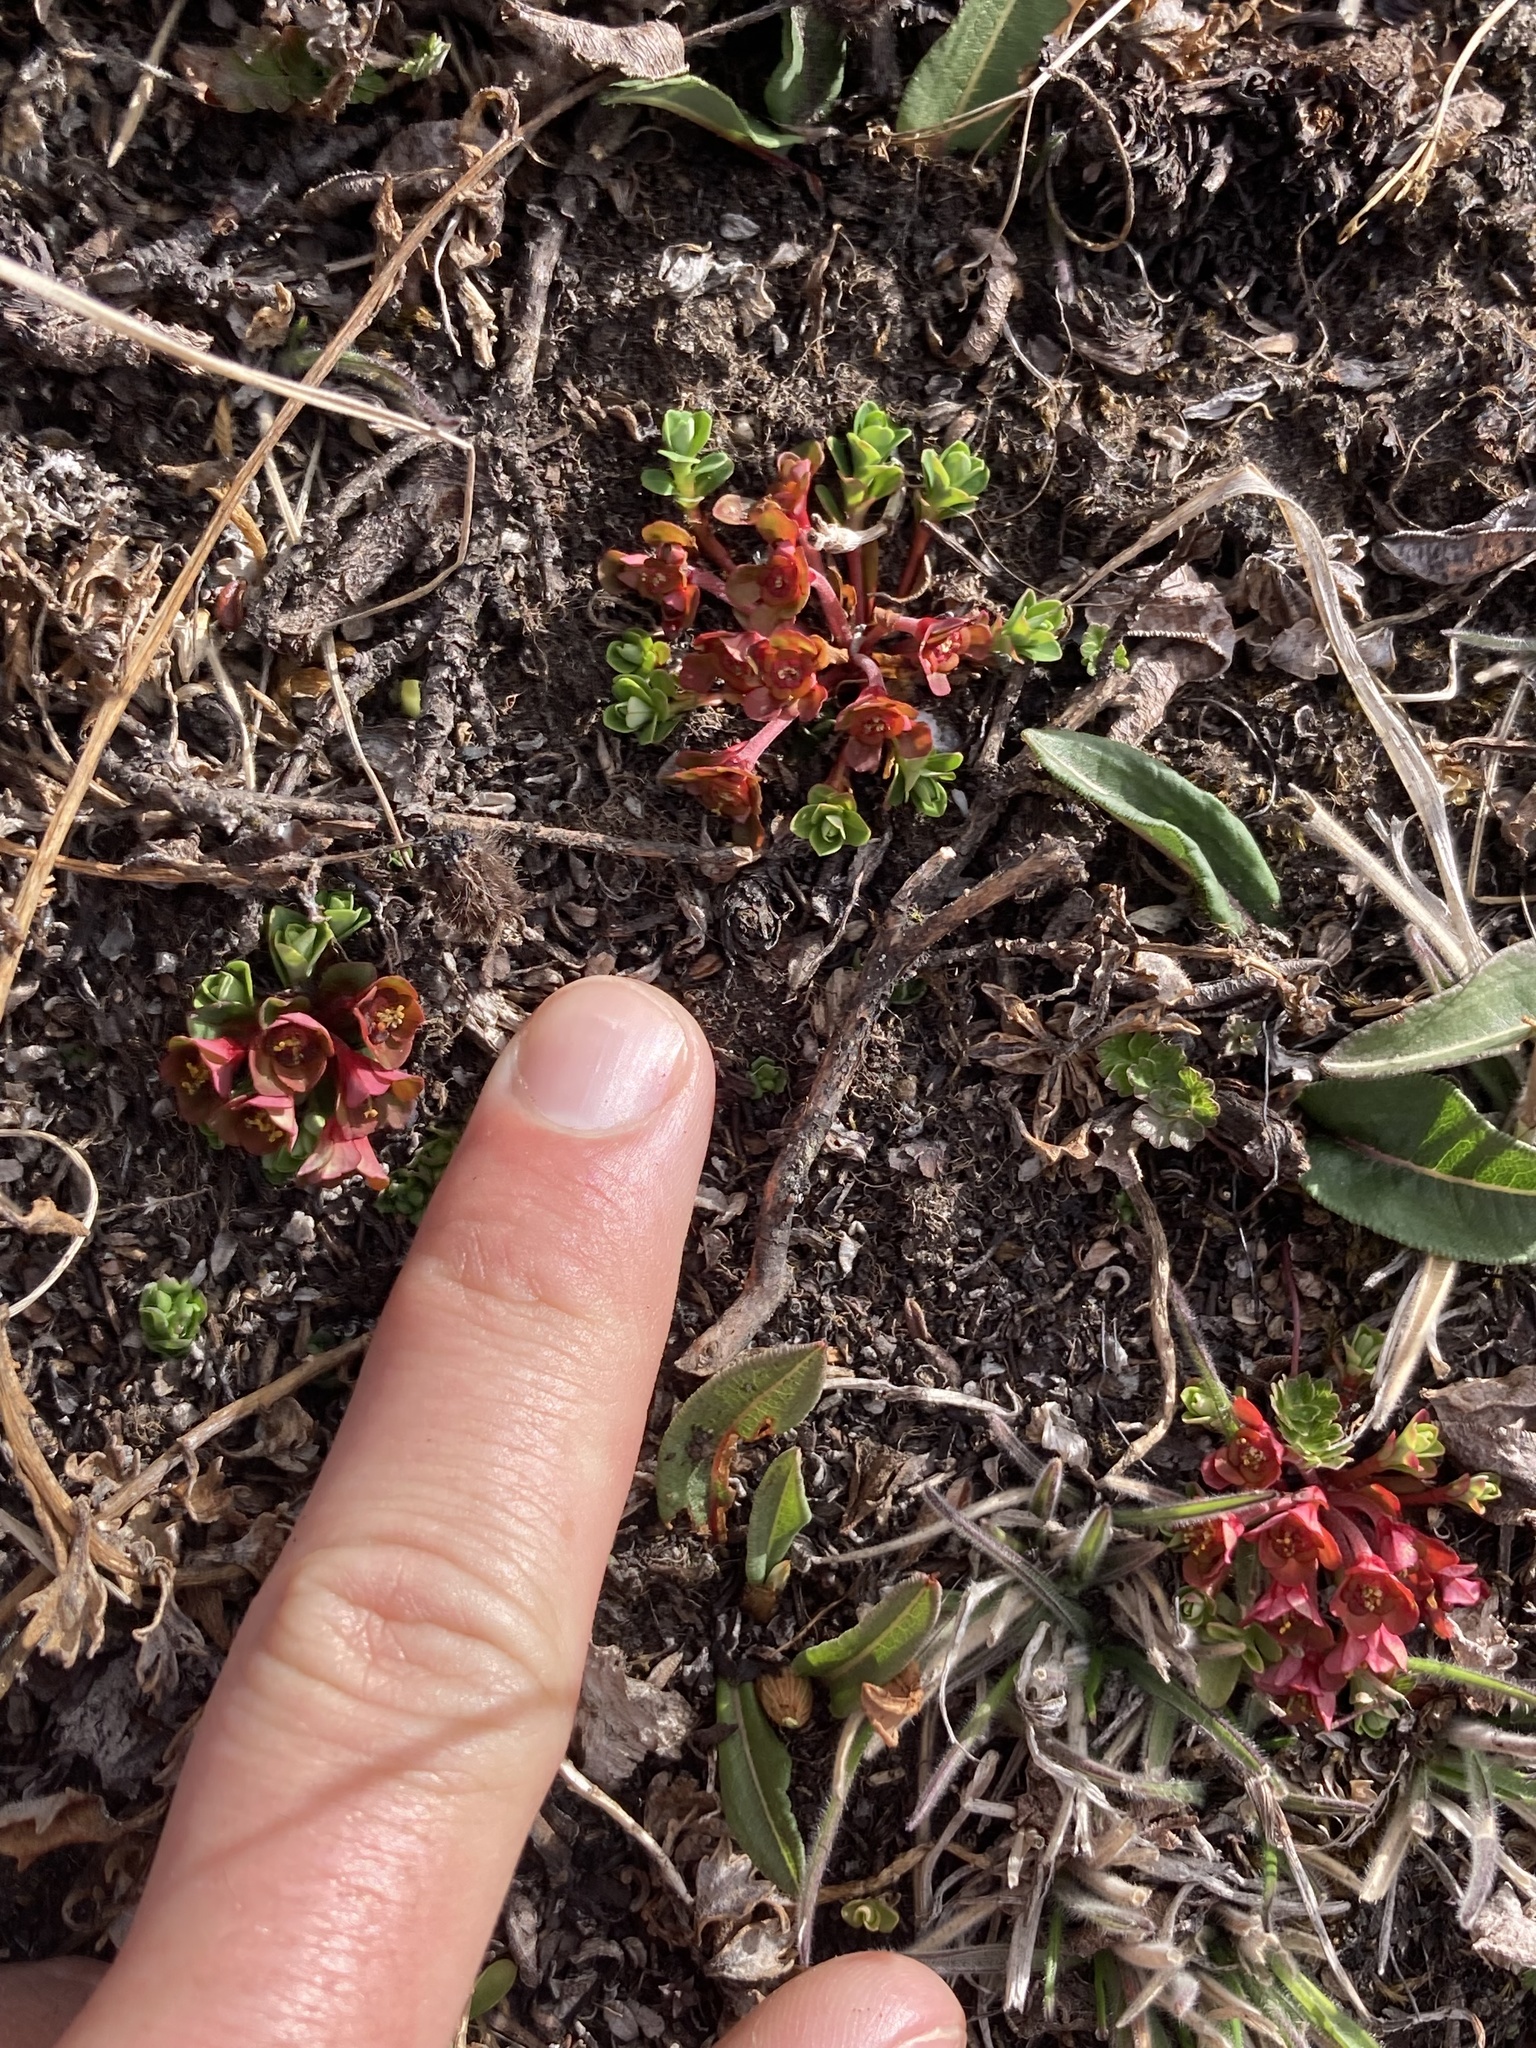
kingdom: Plantae
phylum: Tracheophyta
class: Magnoliopsida
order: Malpighiales
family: Euphorbiaceae
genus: Euphorbia
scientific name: Euphorbia stracheyi
